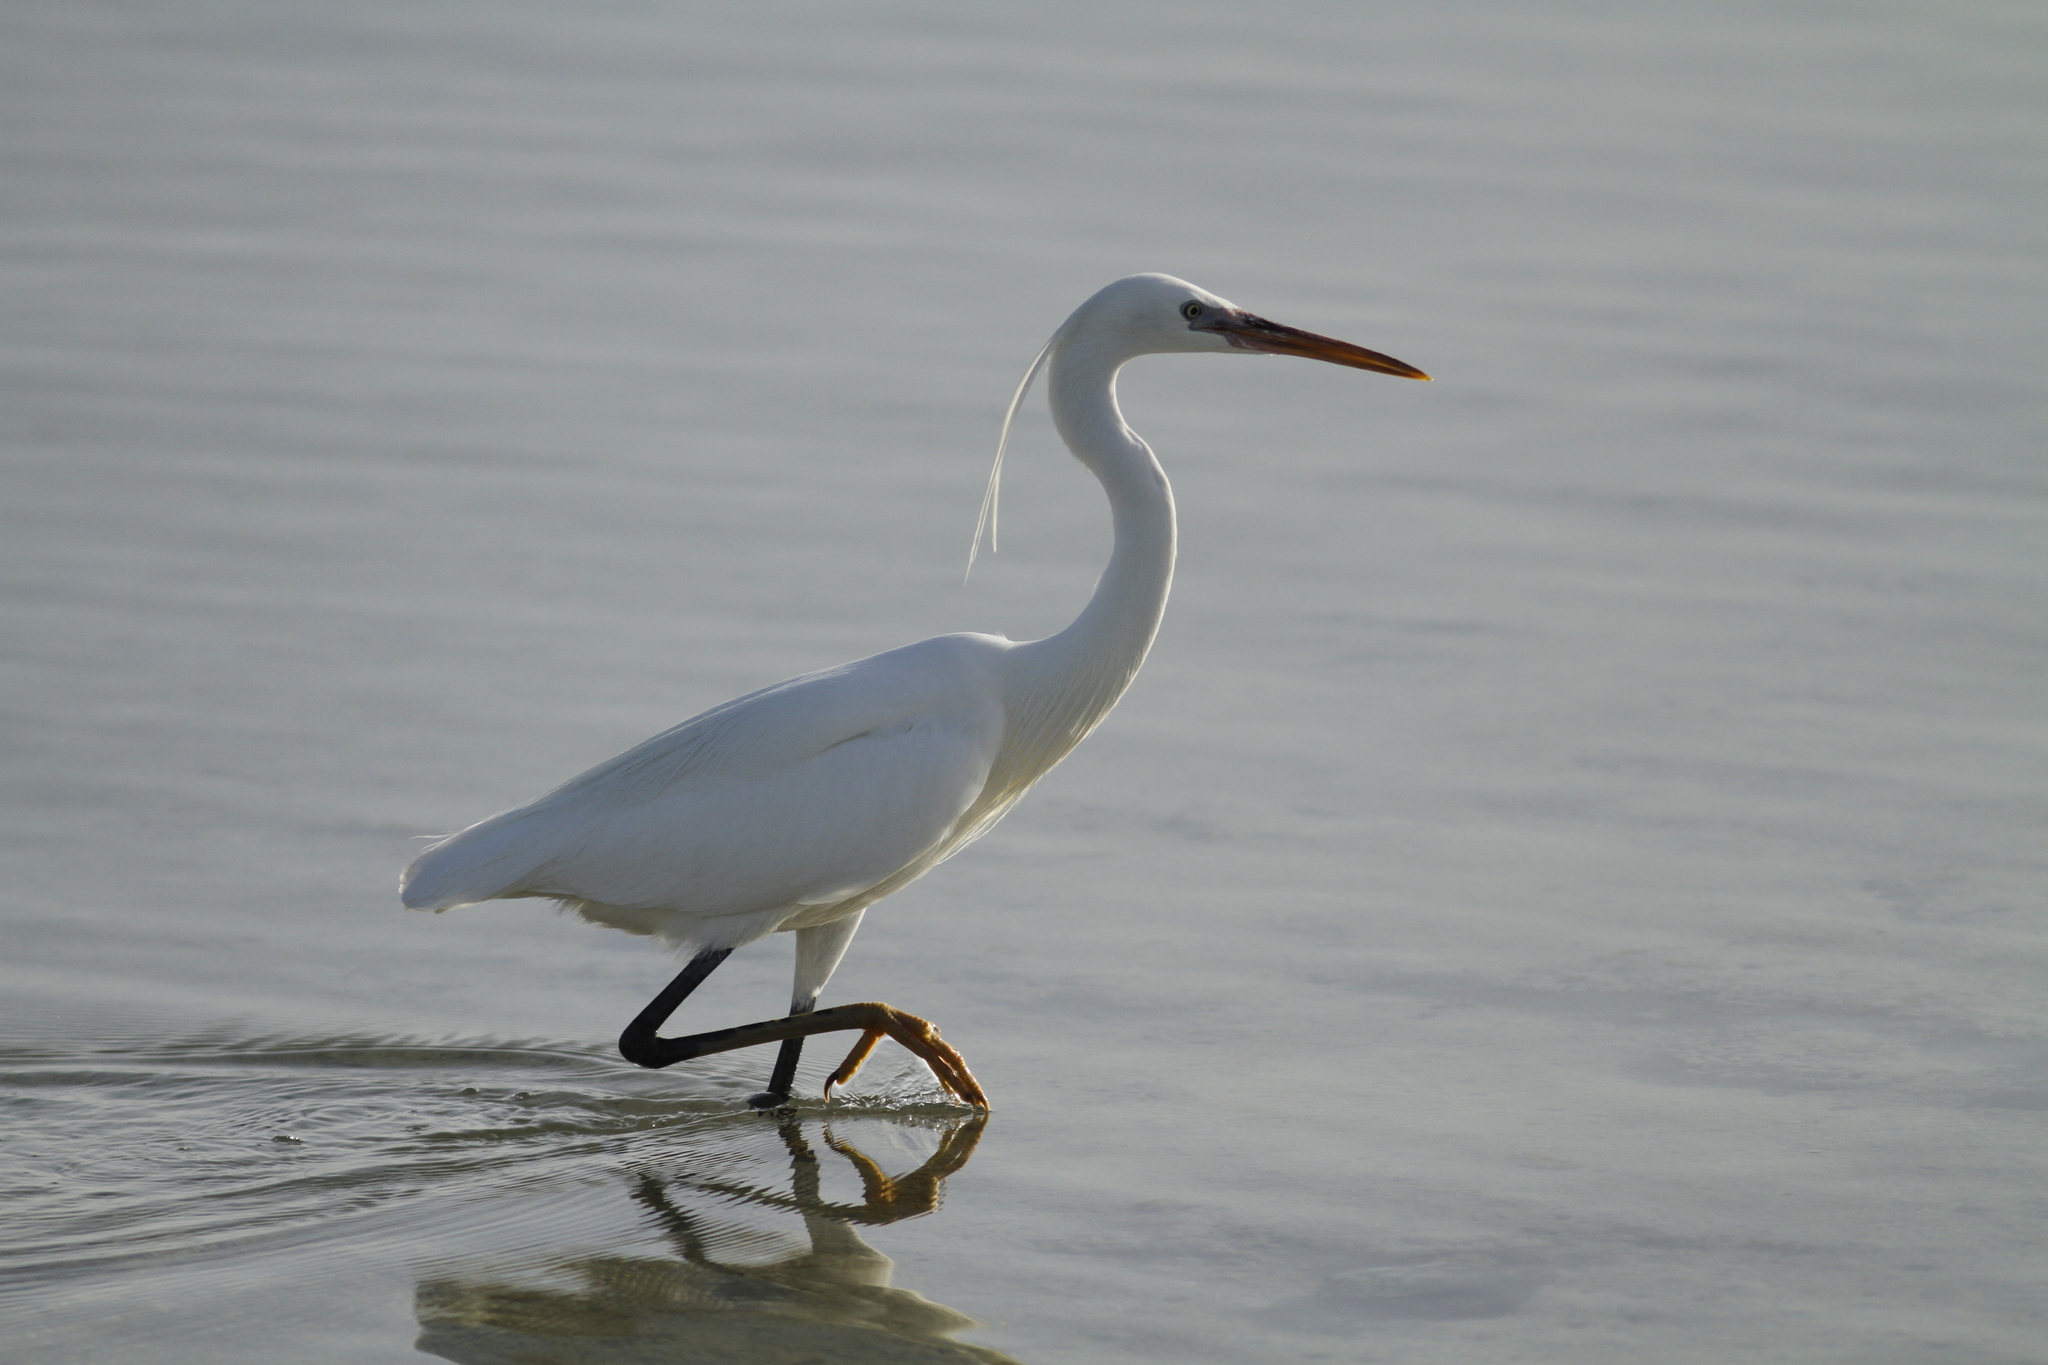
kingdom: Animalia
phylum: Chordata
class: Aves
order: Pelecaniformes
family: Ardeidae
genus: Egretta
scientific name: Egretta gularis
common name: Western reef-heron
